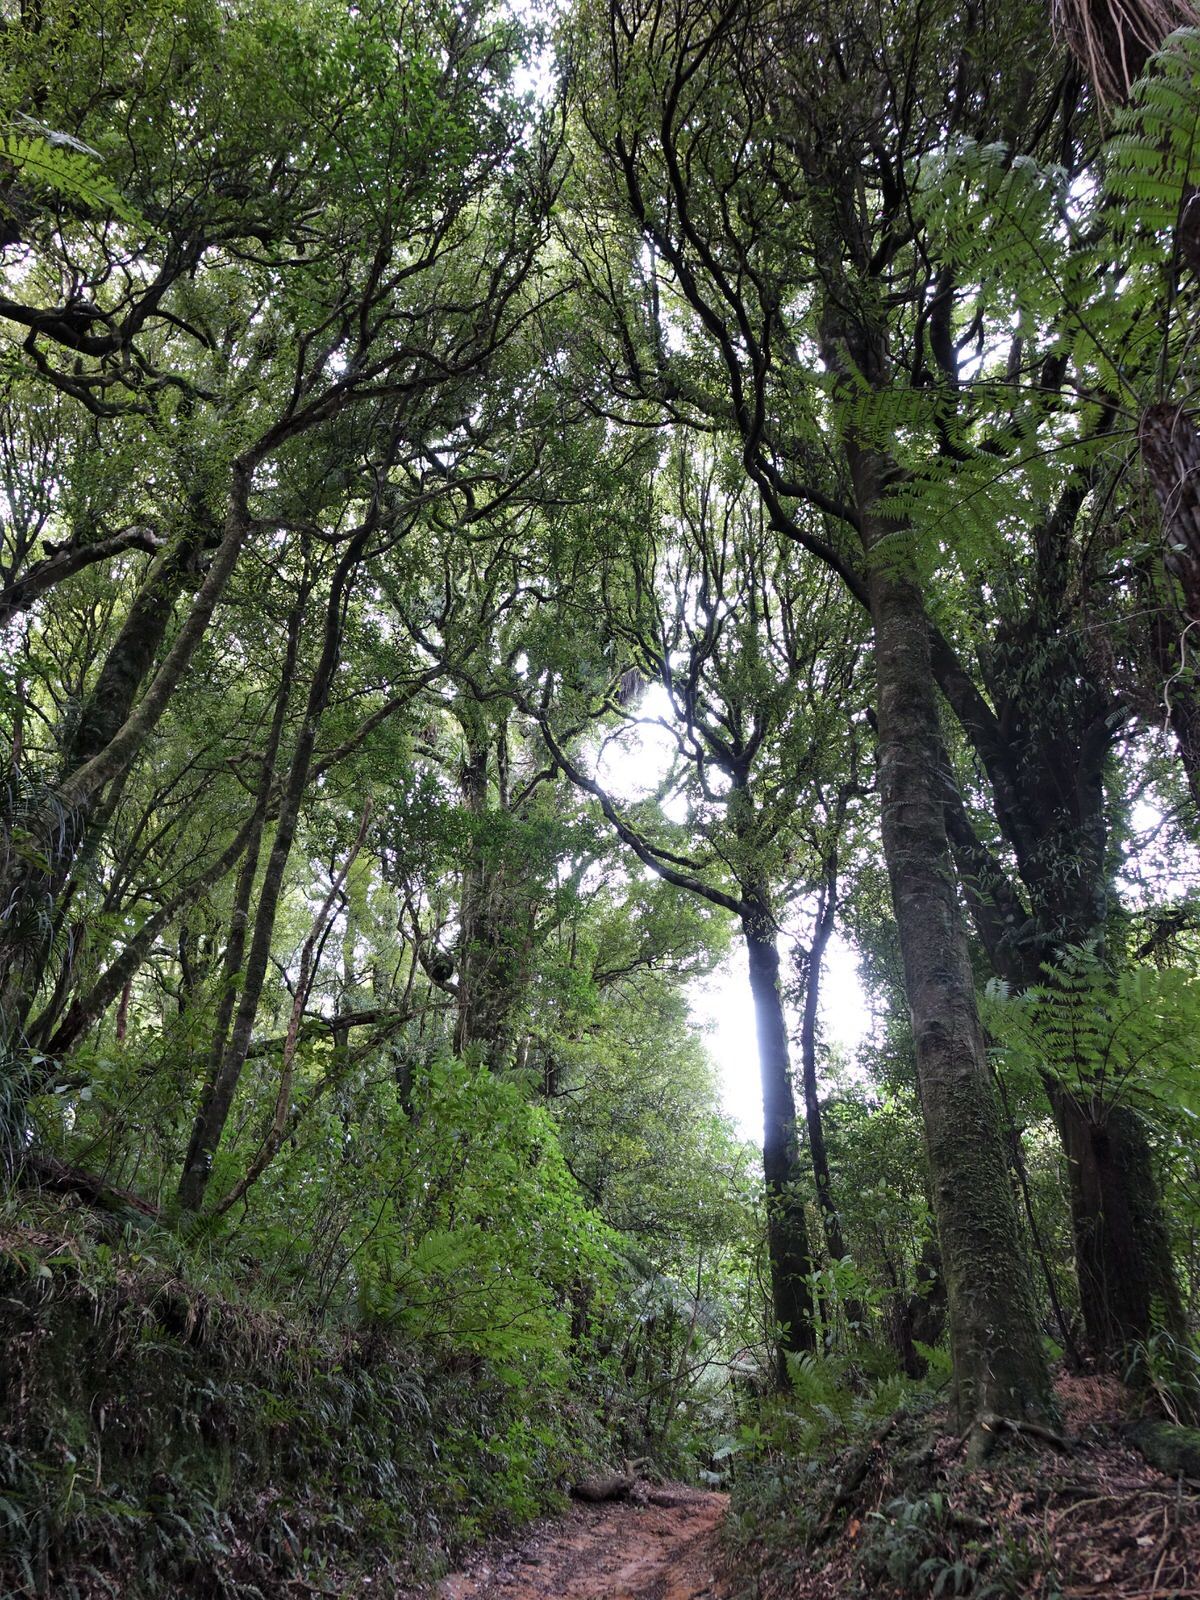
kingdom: Plantae
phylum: Tracheophyta
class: Magnoliopsida
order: Laurales
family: Lauraceae
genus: Beilschmiedia
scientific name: Beilschmiedia tawa
